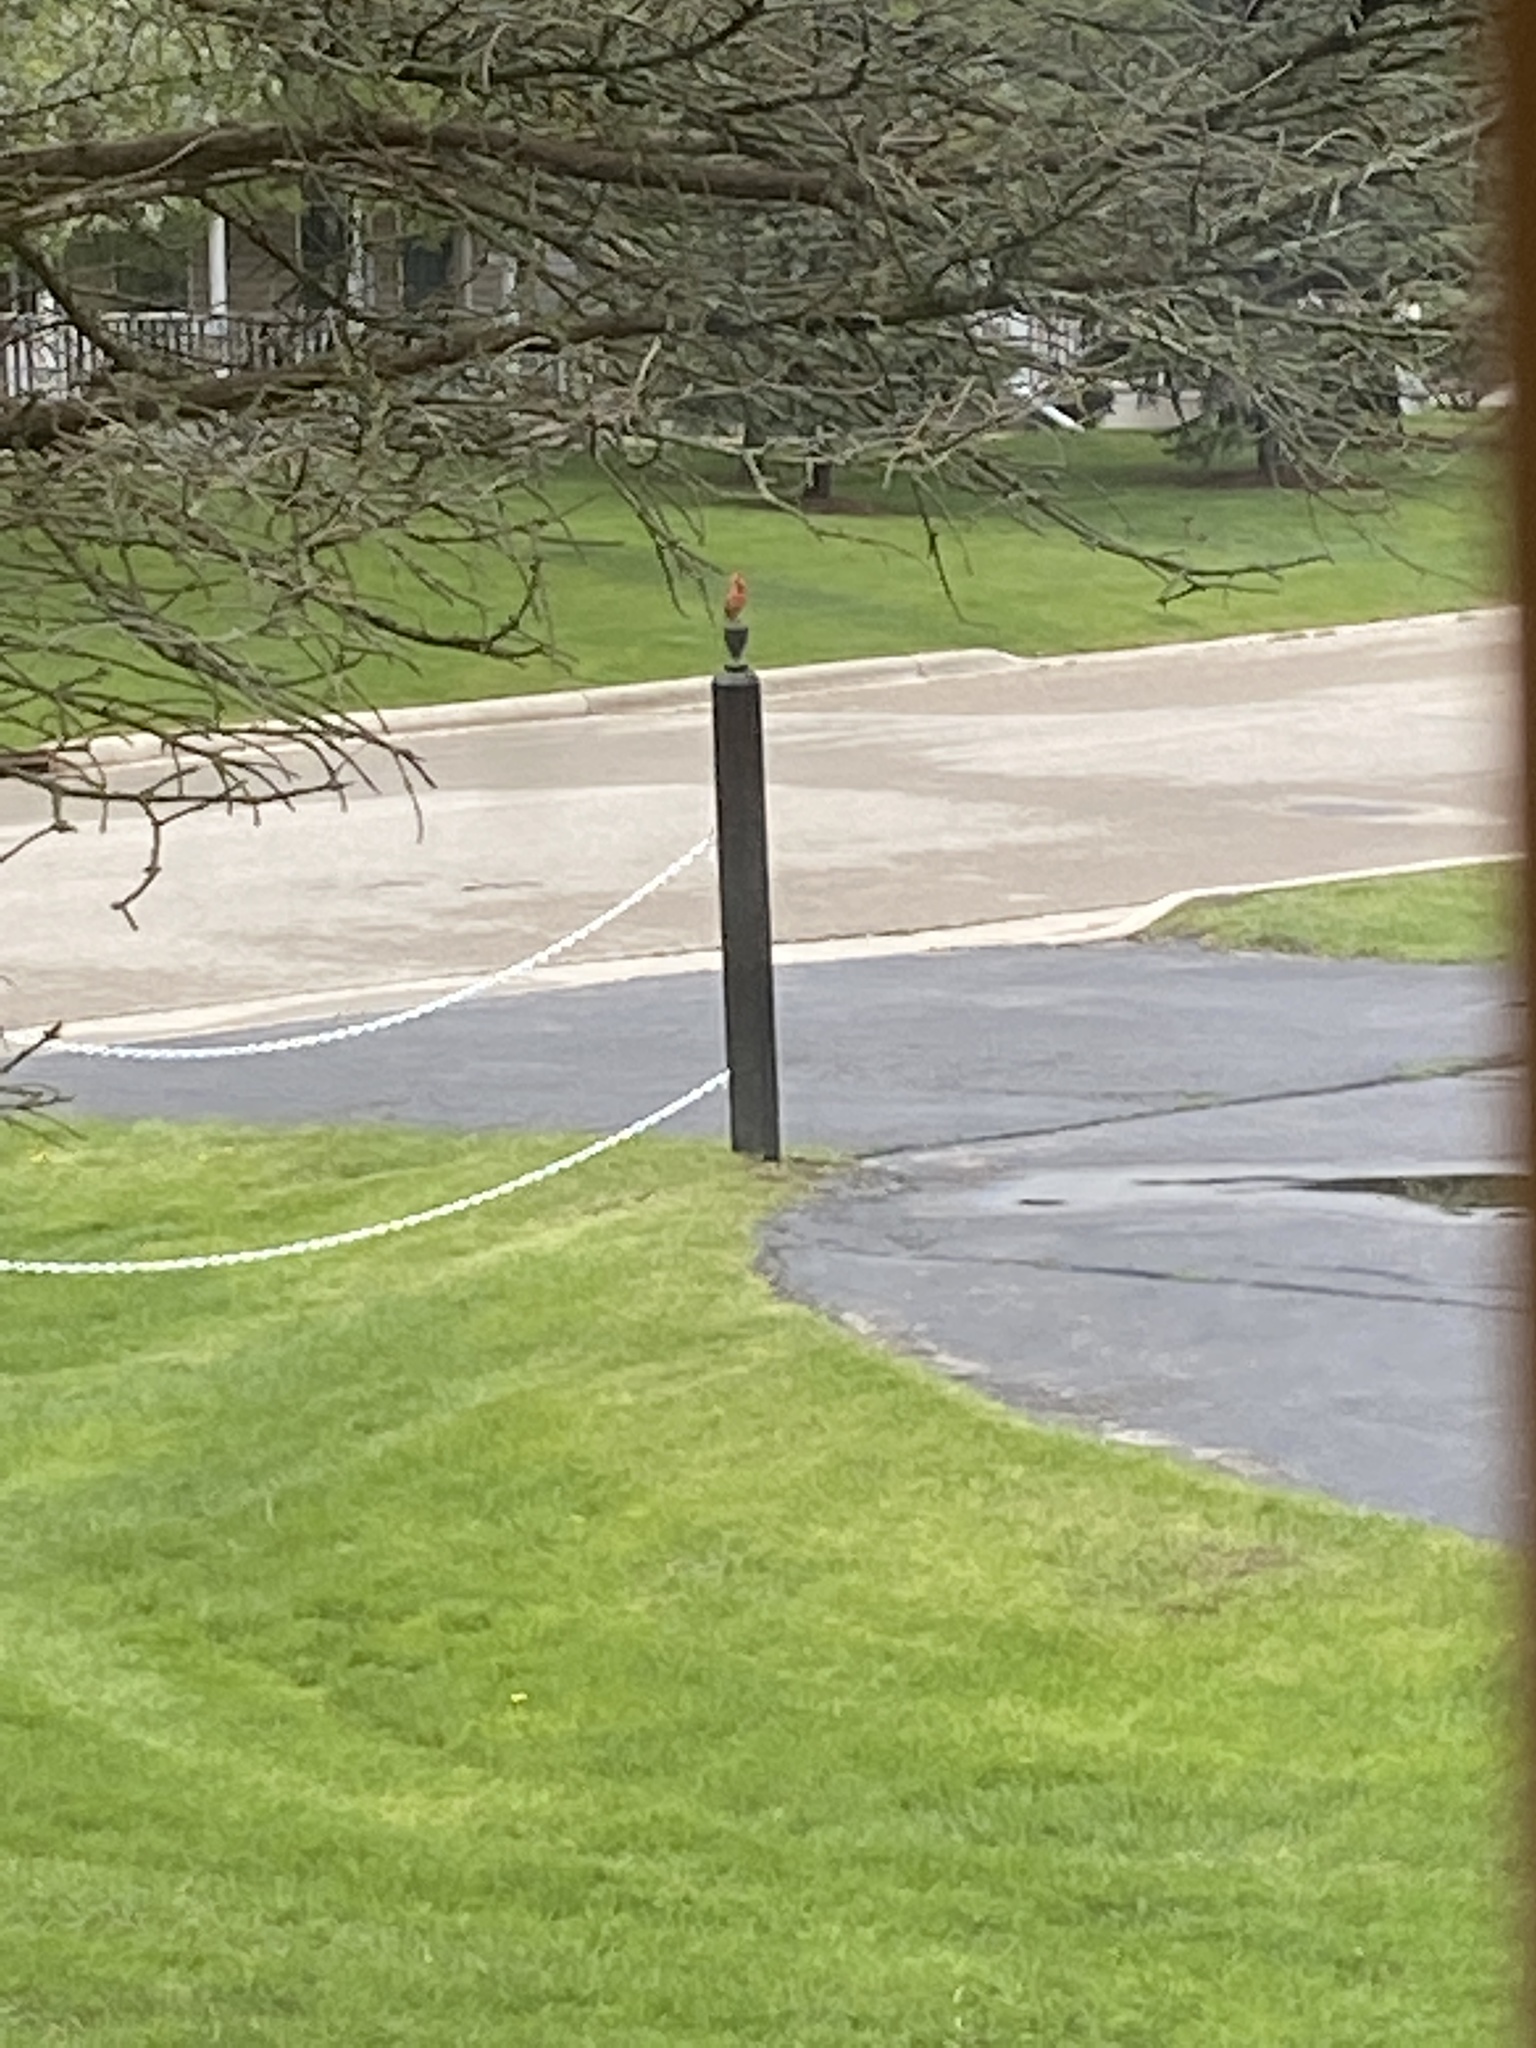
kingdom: Animalia
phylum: Chordata
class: Aves
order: Passeriformes
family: Cardinalidae
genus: Cardinalis
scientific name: Cardinalis cardinalis
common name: Northern cardinal
